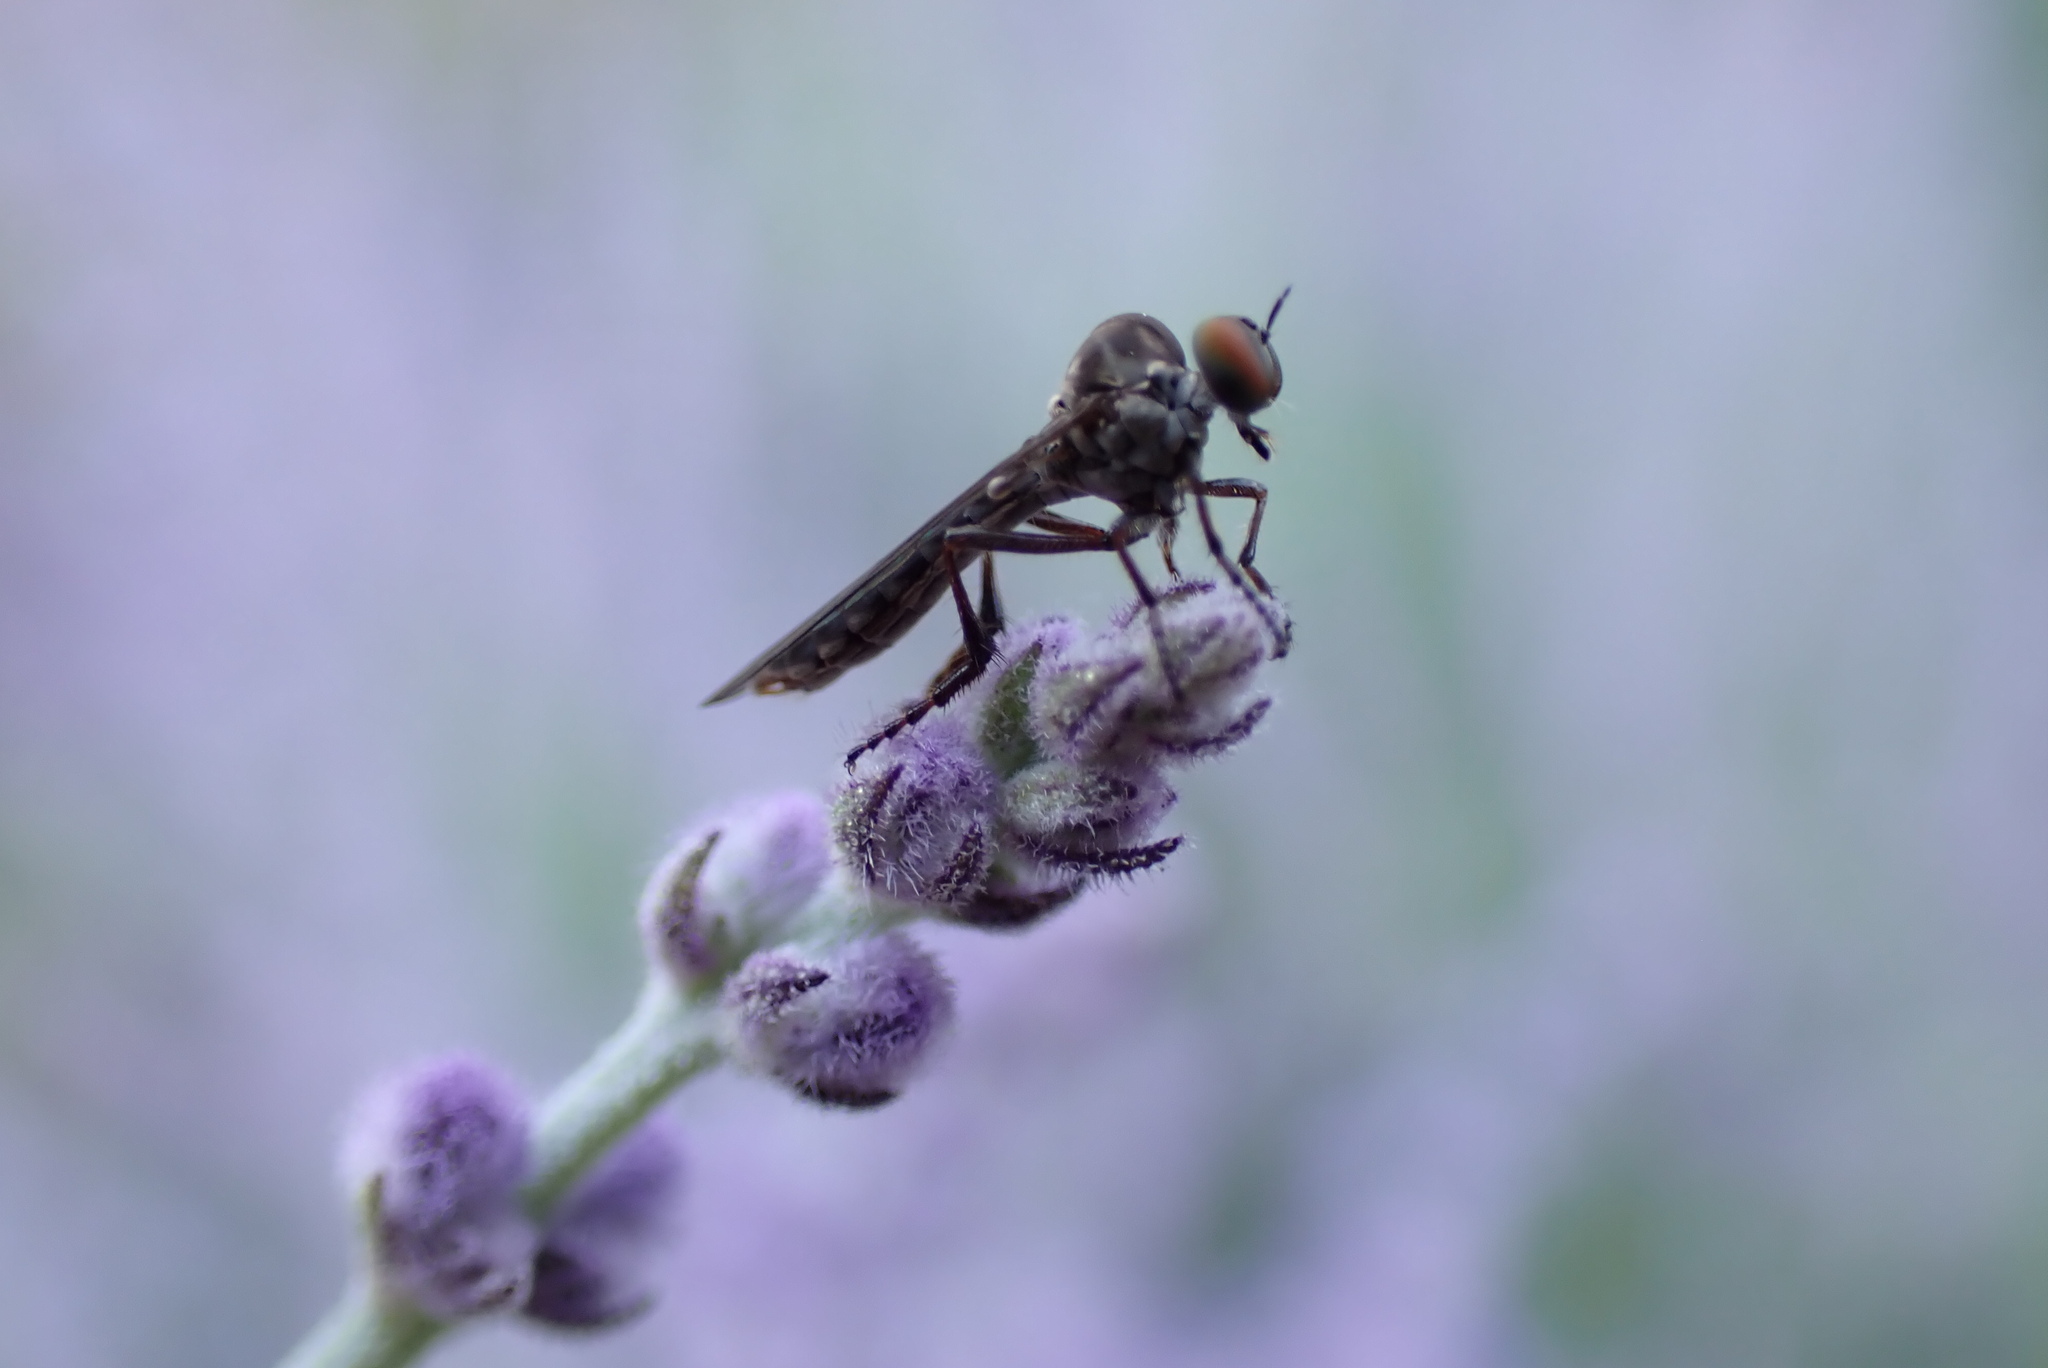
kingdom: Animalia
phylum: Arthropoda
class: Insecta
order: Diptera
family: Asilidae
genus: Holcocephala
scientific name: Holcocephala calva
